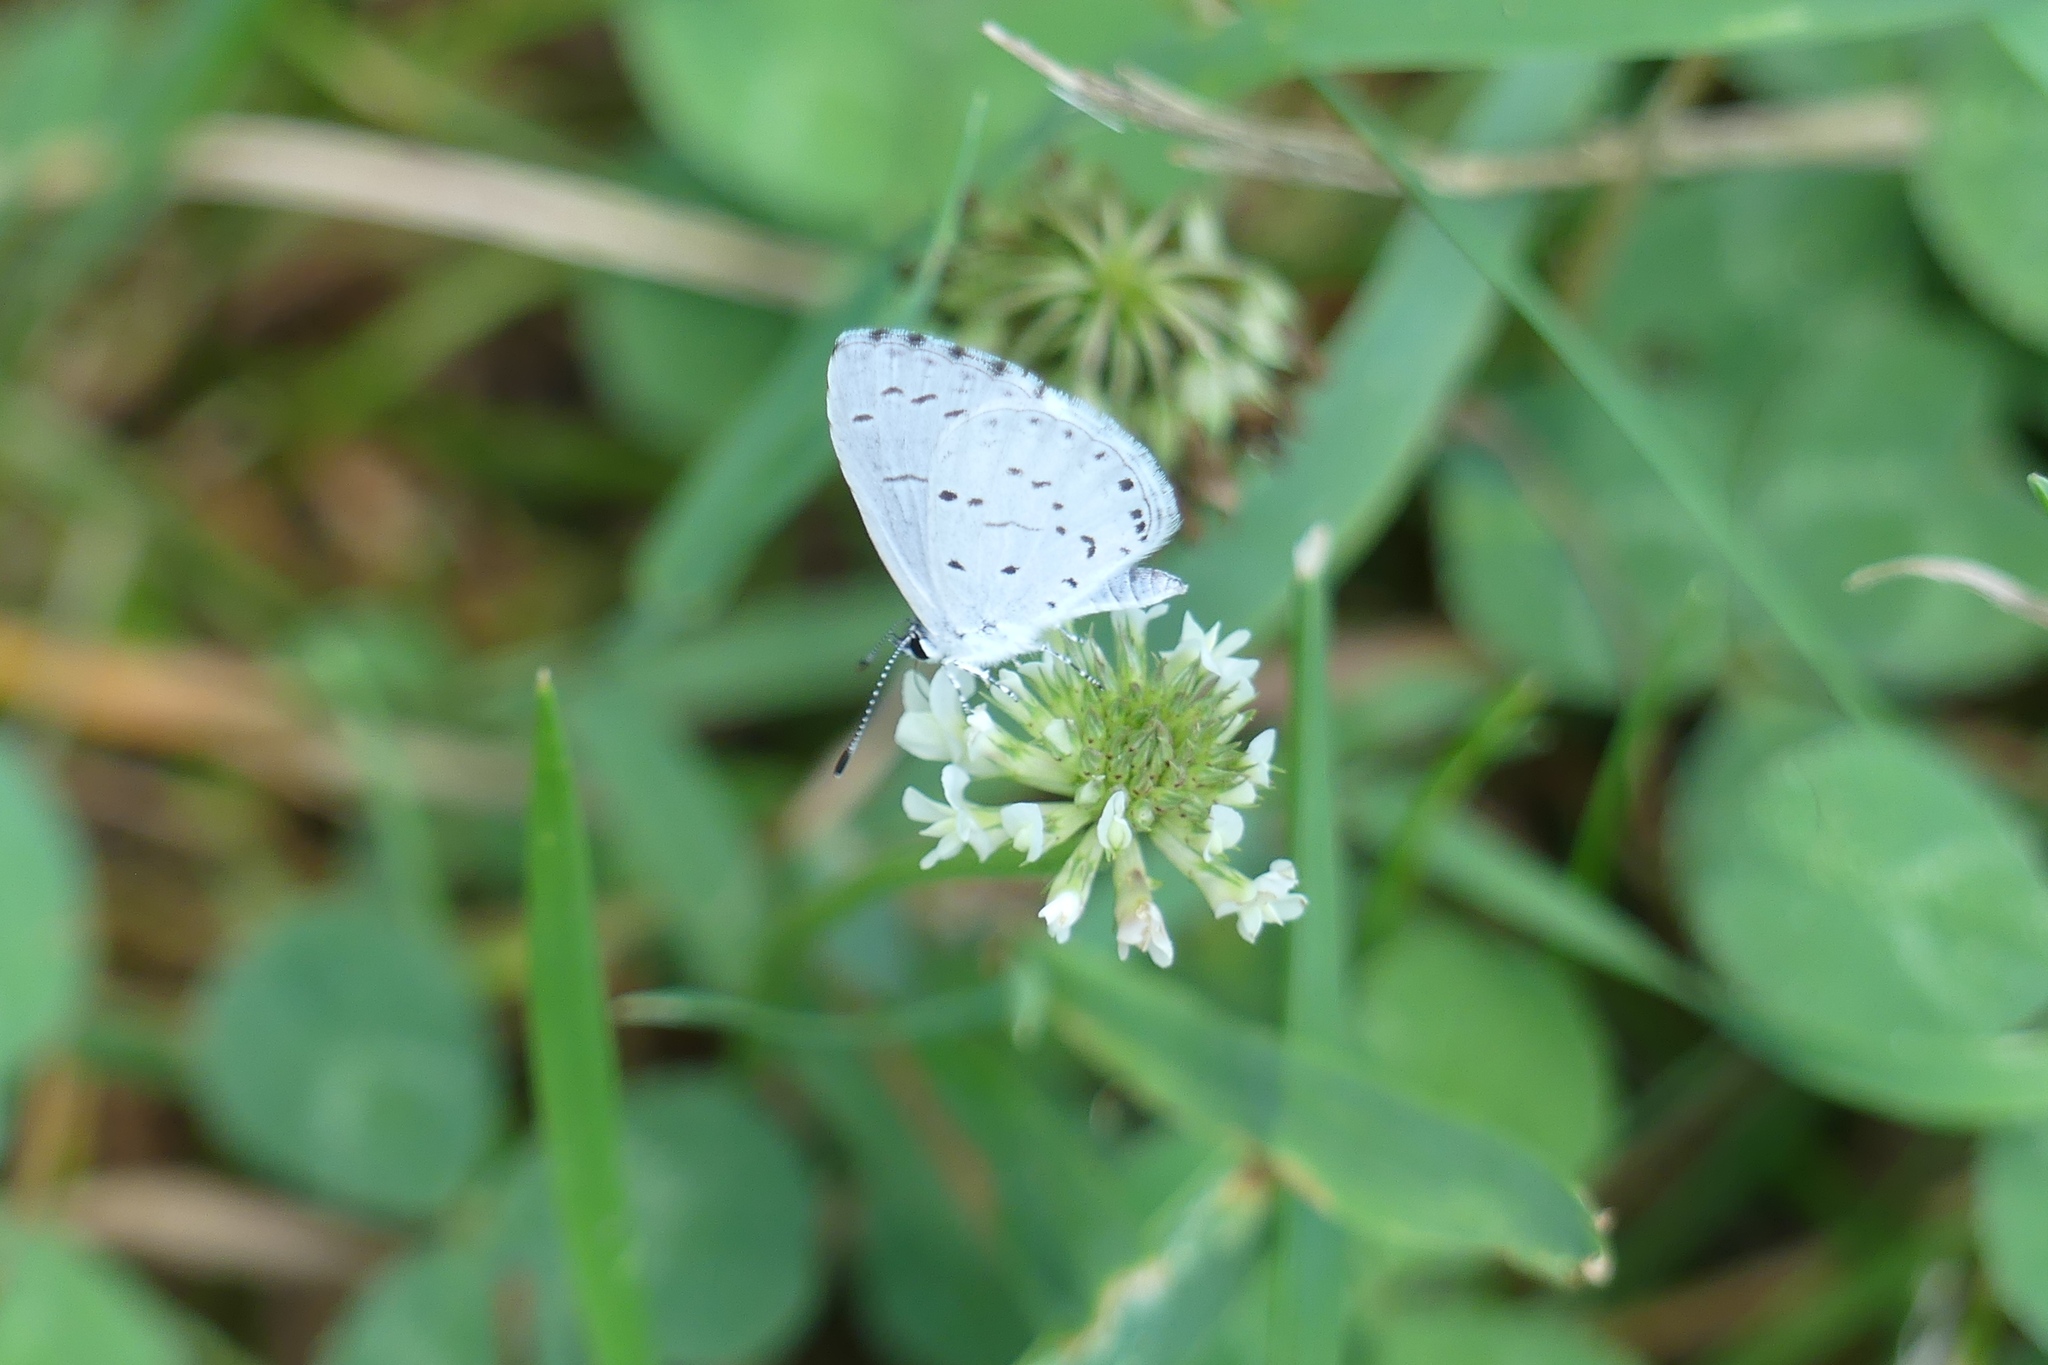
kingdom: Animalia
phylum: Arthropoda
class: Insecta
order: Lepidoptera
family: Lycaenidae
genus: Cyaniris
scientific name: Cyaniris neglecta
